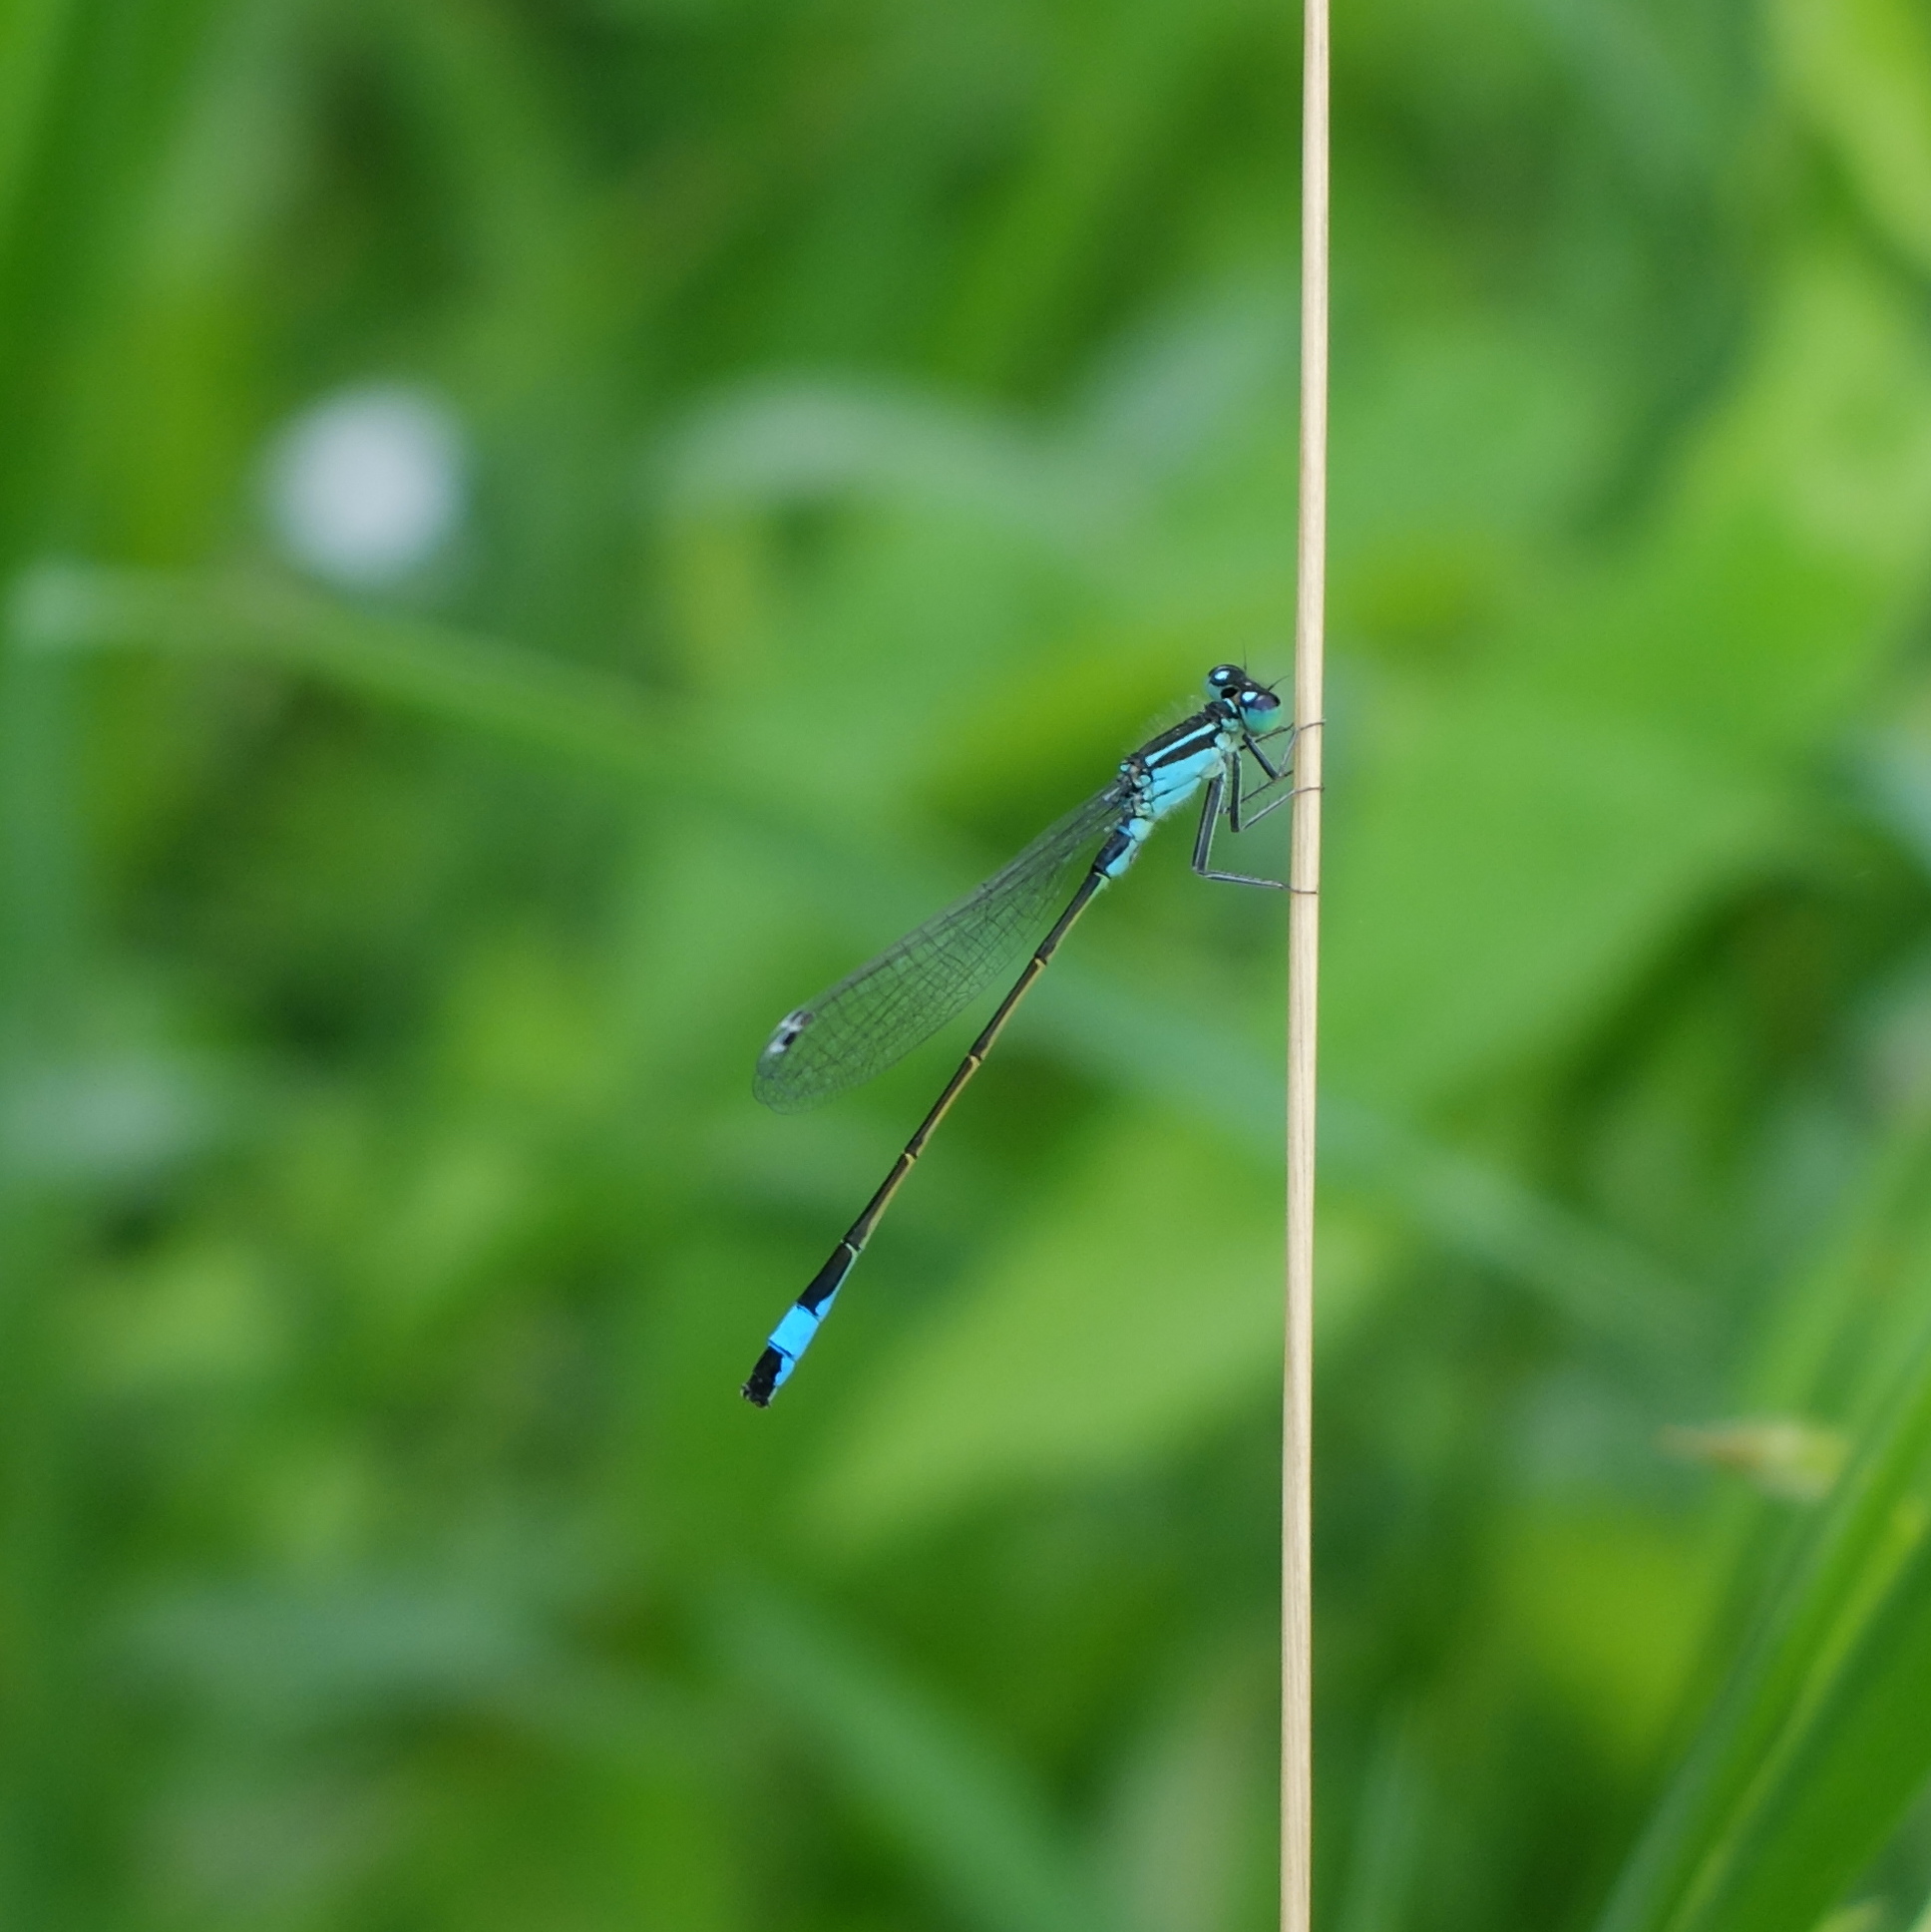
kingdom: Animalia
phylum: Arthropoda
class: Insecta
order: Odonata
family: Coenagrionidae
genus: Ischnura
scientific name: Ischnura elegans
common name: Blue-tailed damselfly
